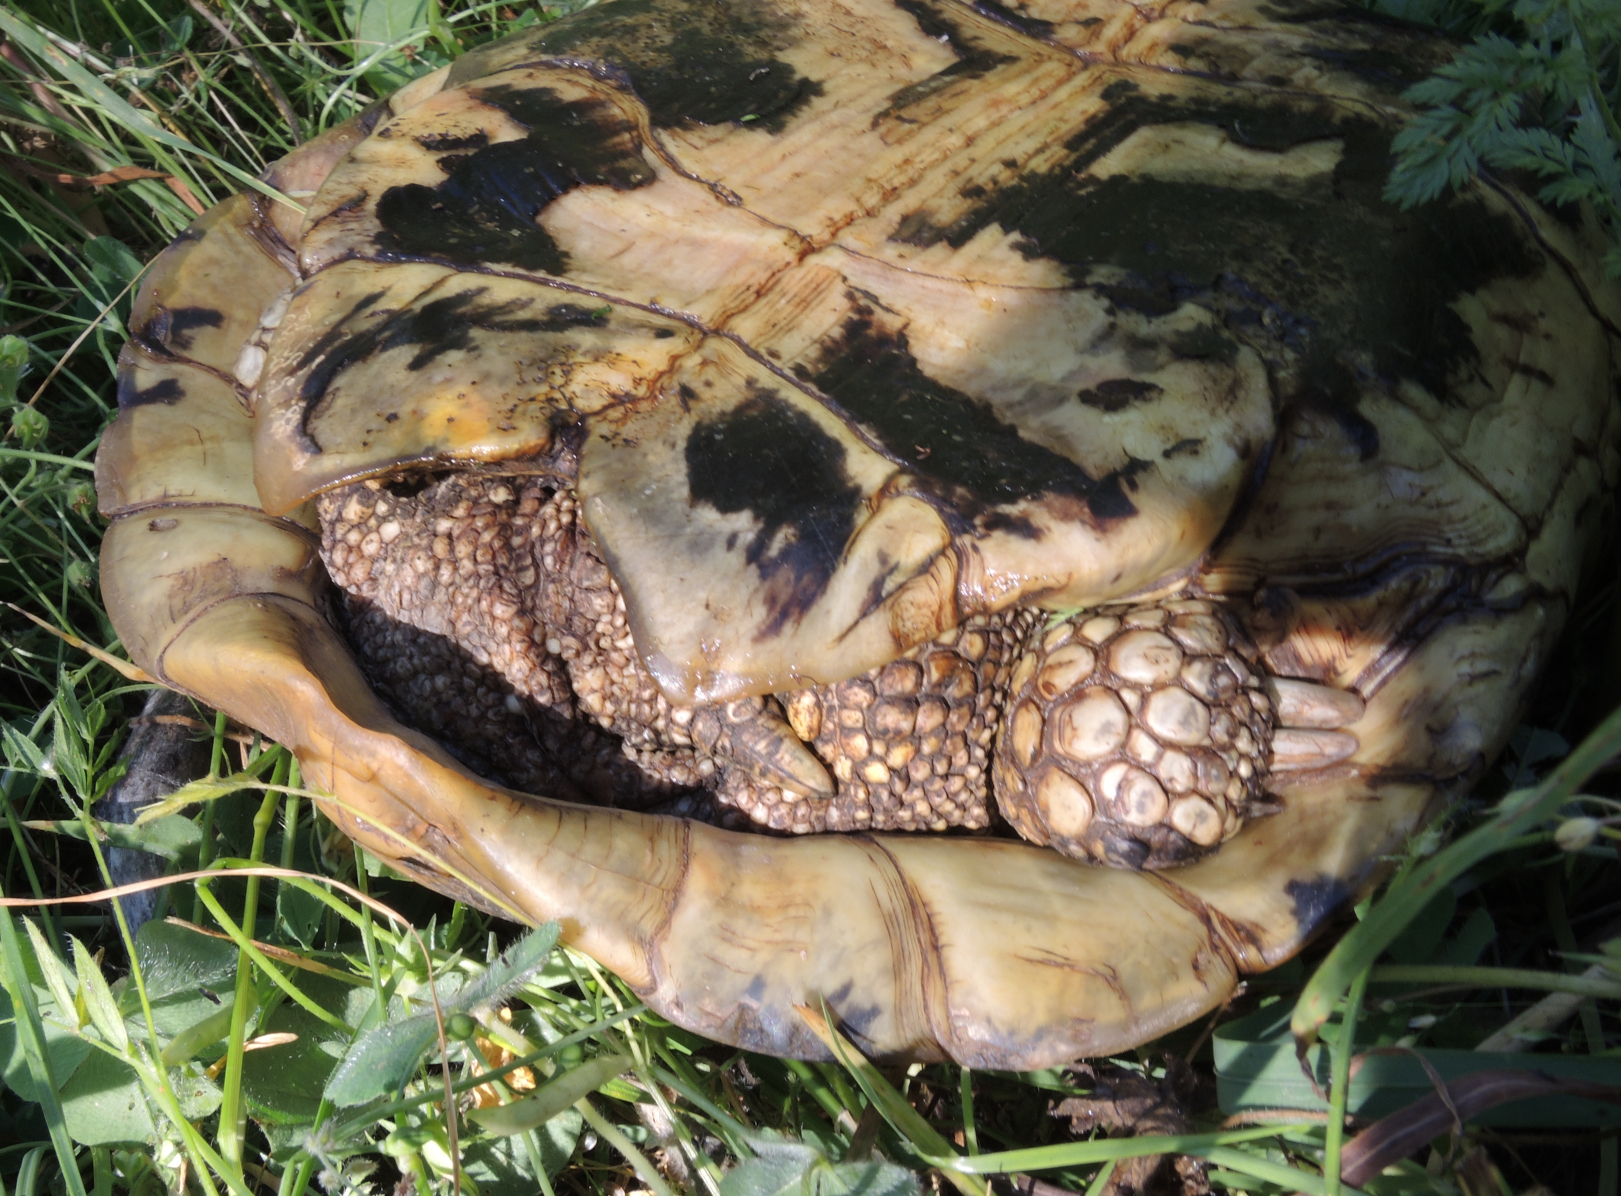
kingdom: Animalia
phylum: Chordata
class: Testudines
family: Testudinidae
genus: Testudo
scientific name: Testudo hermanni
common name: Hermann's tortoise
